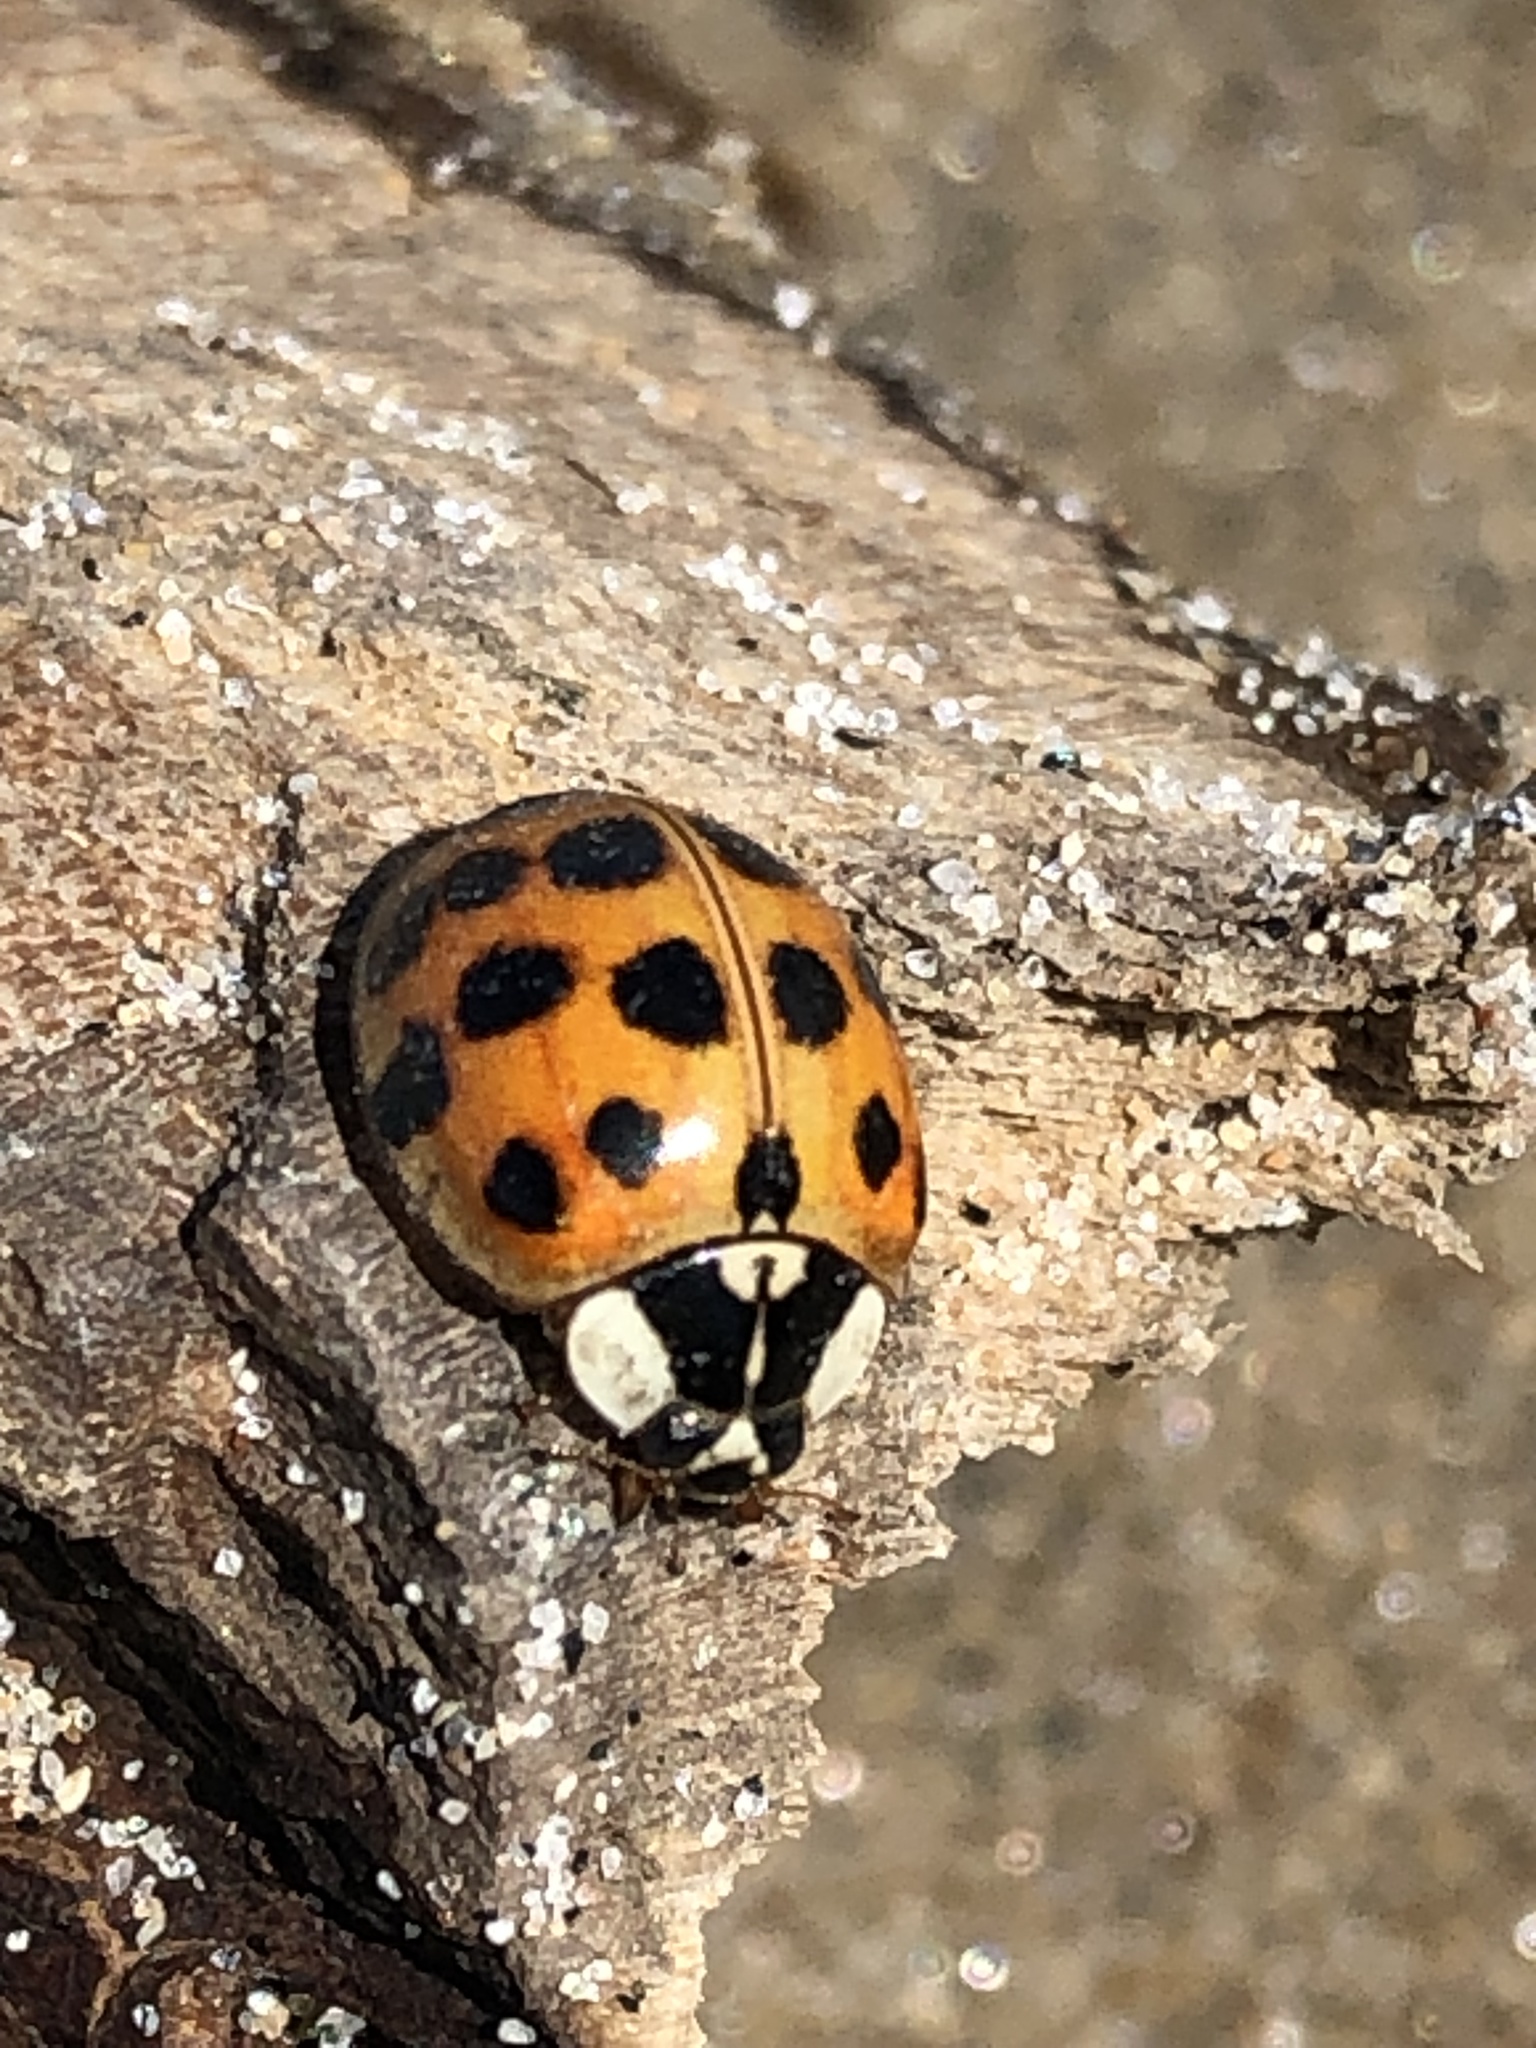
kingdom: Animalia
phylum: Arthropoda
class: Insecta
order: Coleoptera
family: Coccinellidae
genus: Harmonia
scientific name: Harmonia axyridis
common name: Harlequin ladybird
